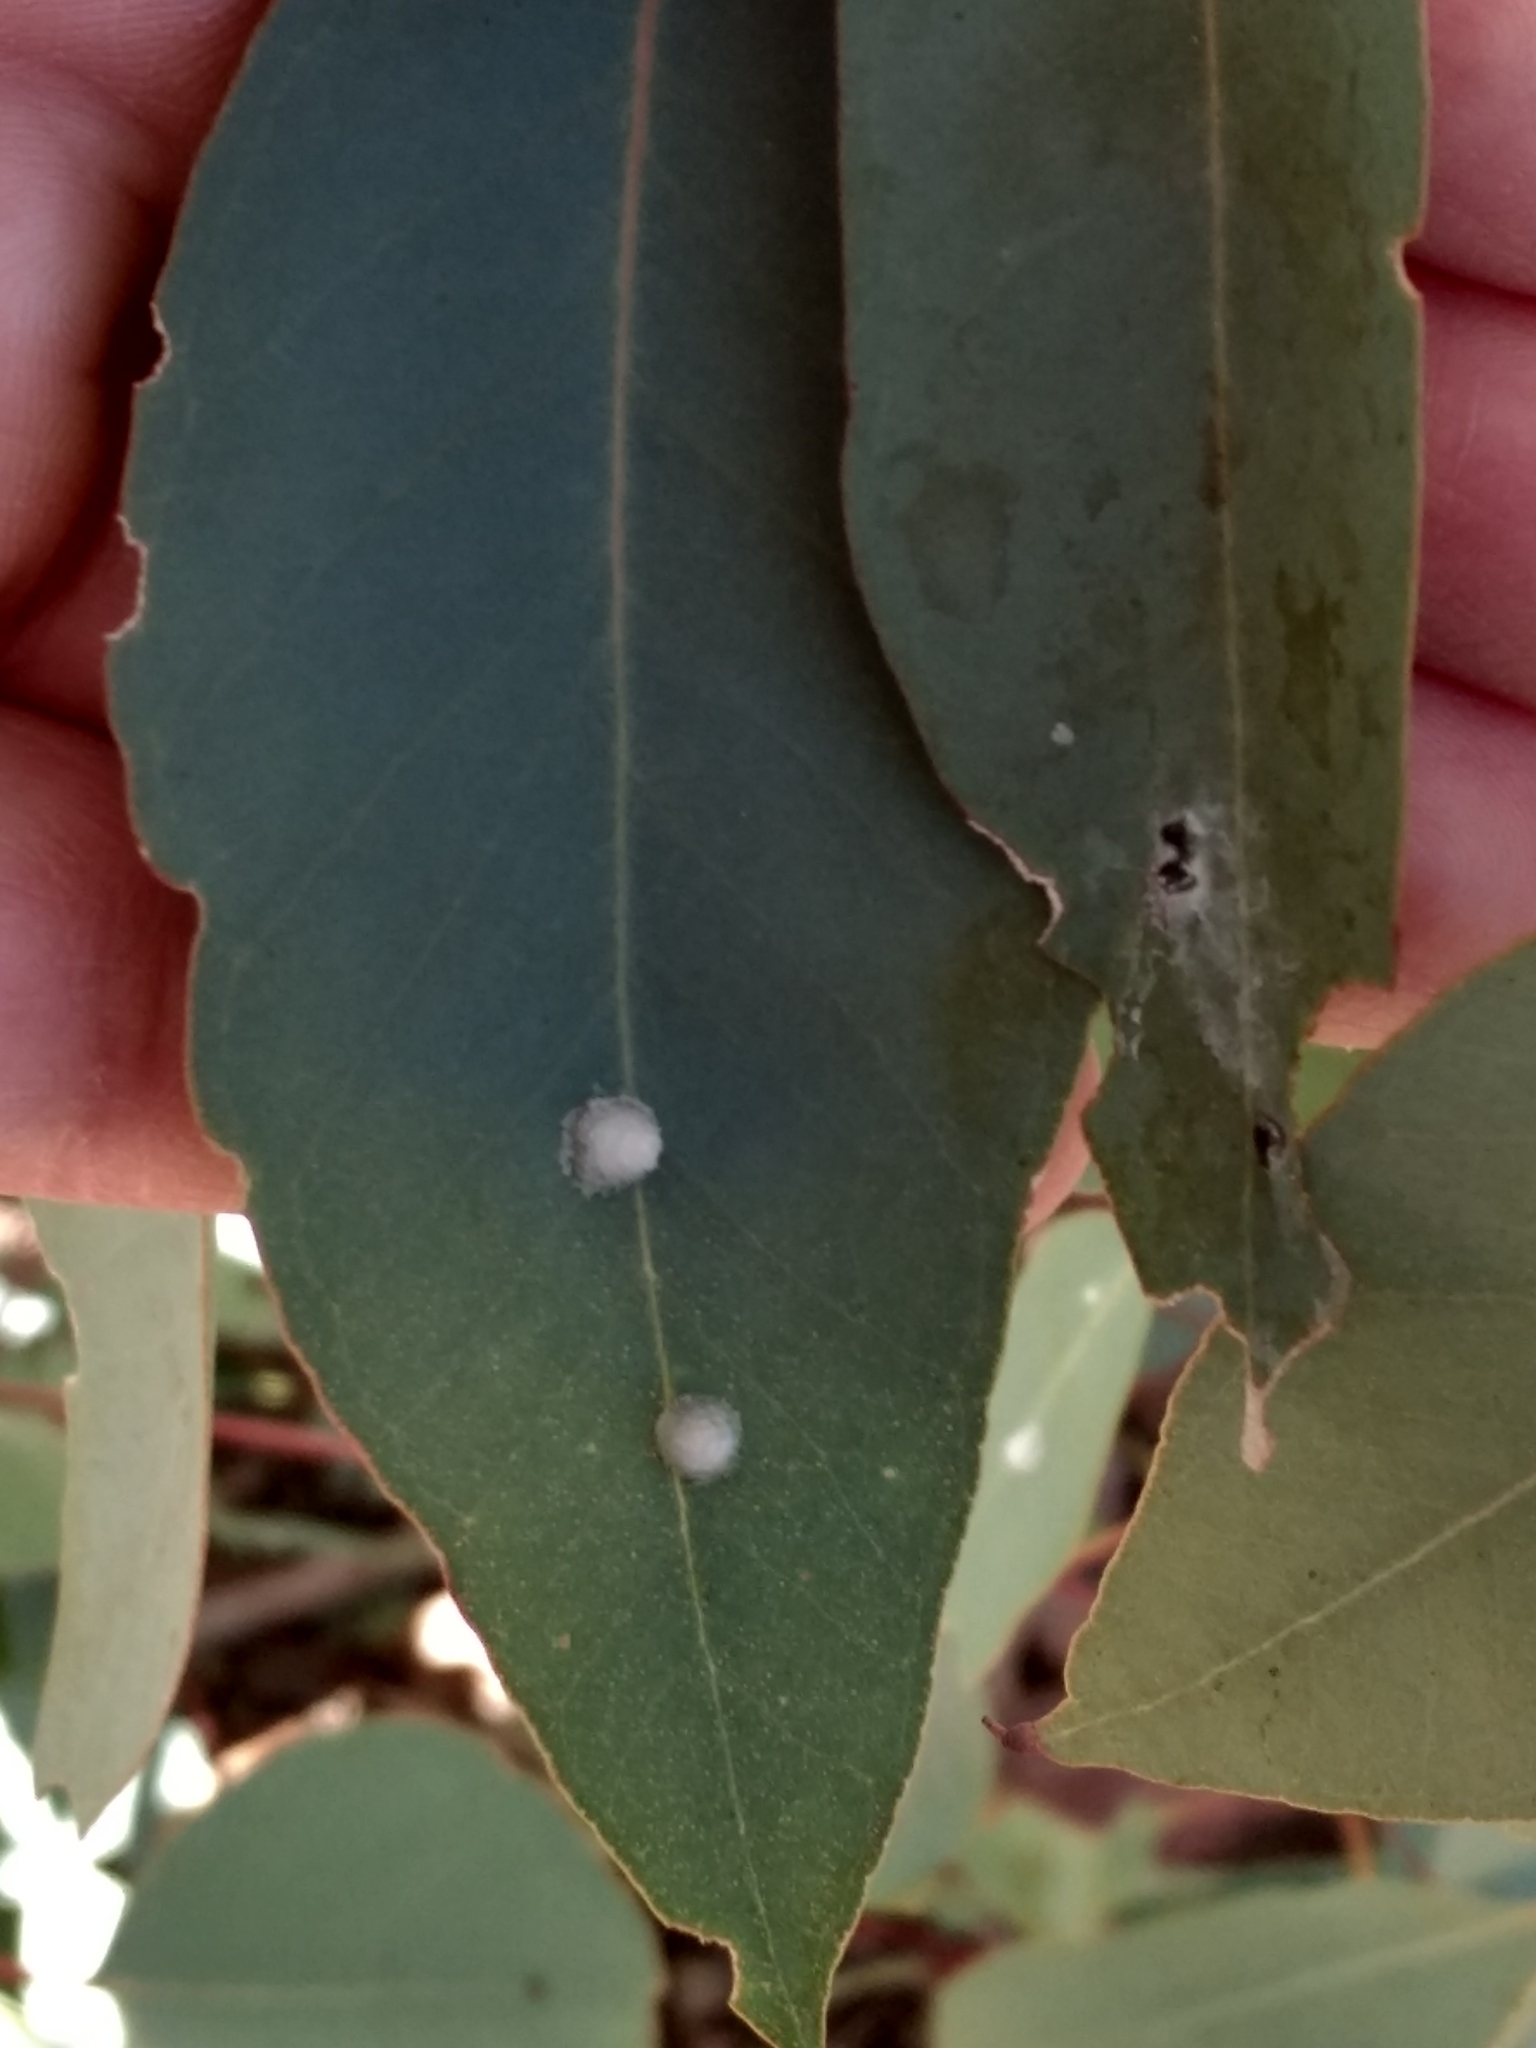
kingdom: Animalia
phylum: Arthropoda
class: Insecta
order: Hemiptera
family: Aphalaridae
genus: Glycaspis
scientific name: Glycaspis brimblecombei
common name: Red gum lerp psyllid
